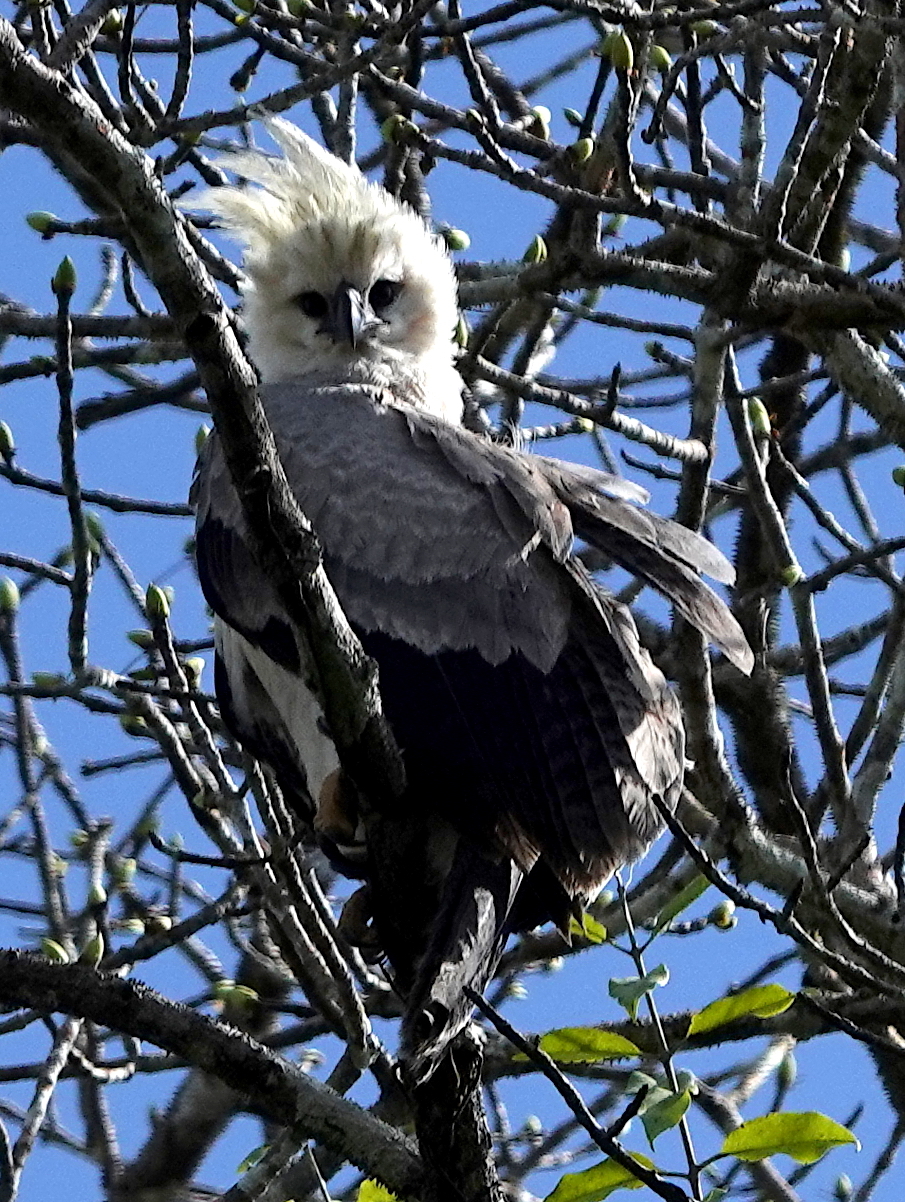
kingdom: Animalia
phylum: Chordata
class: Aves
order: Accipitriformes
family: Accipitridae
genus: Harpia
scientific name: Harpia harpyja
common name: Harpy eagle
